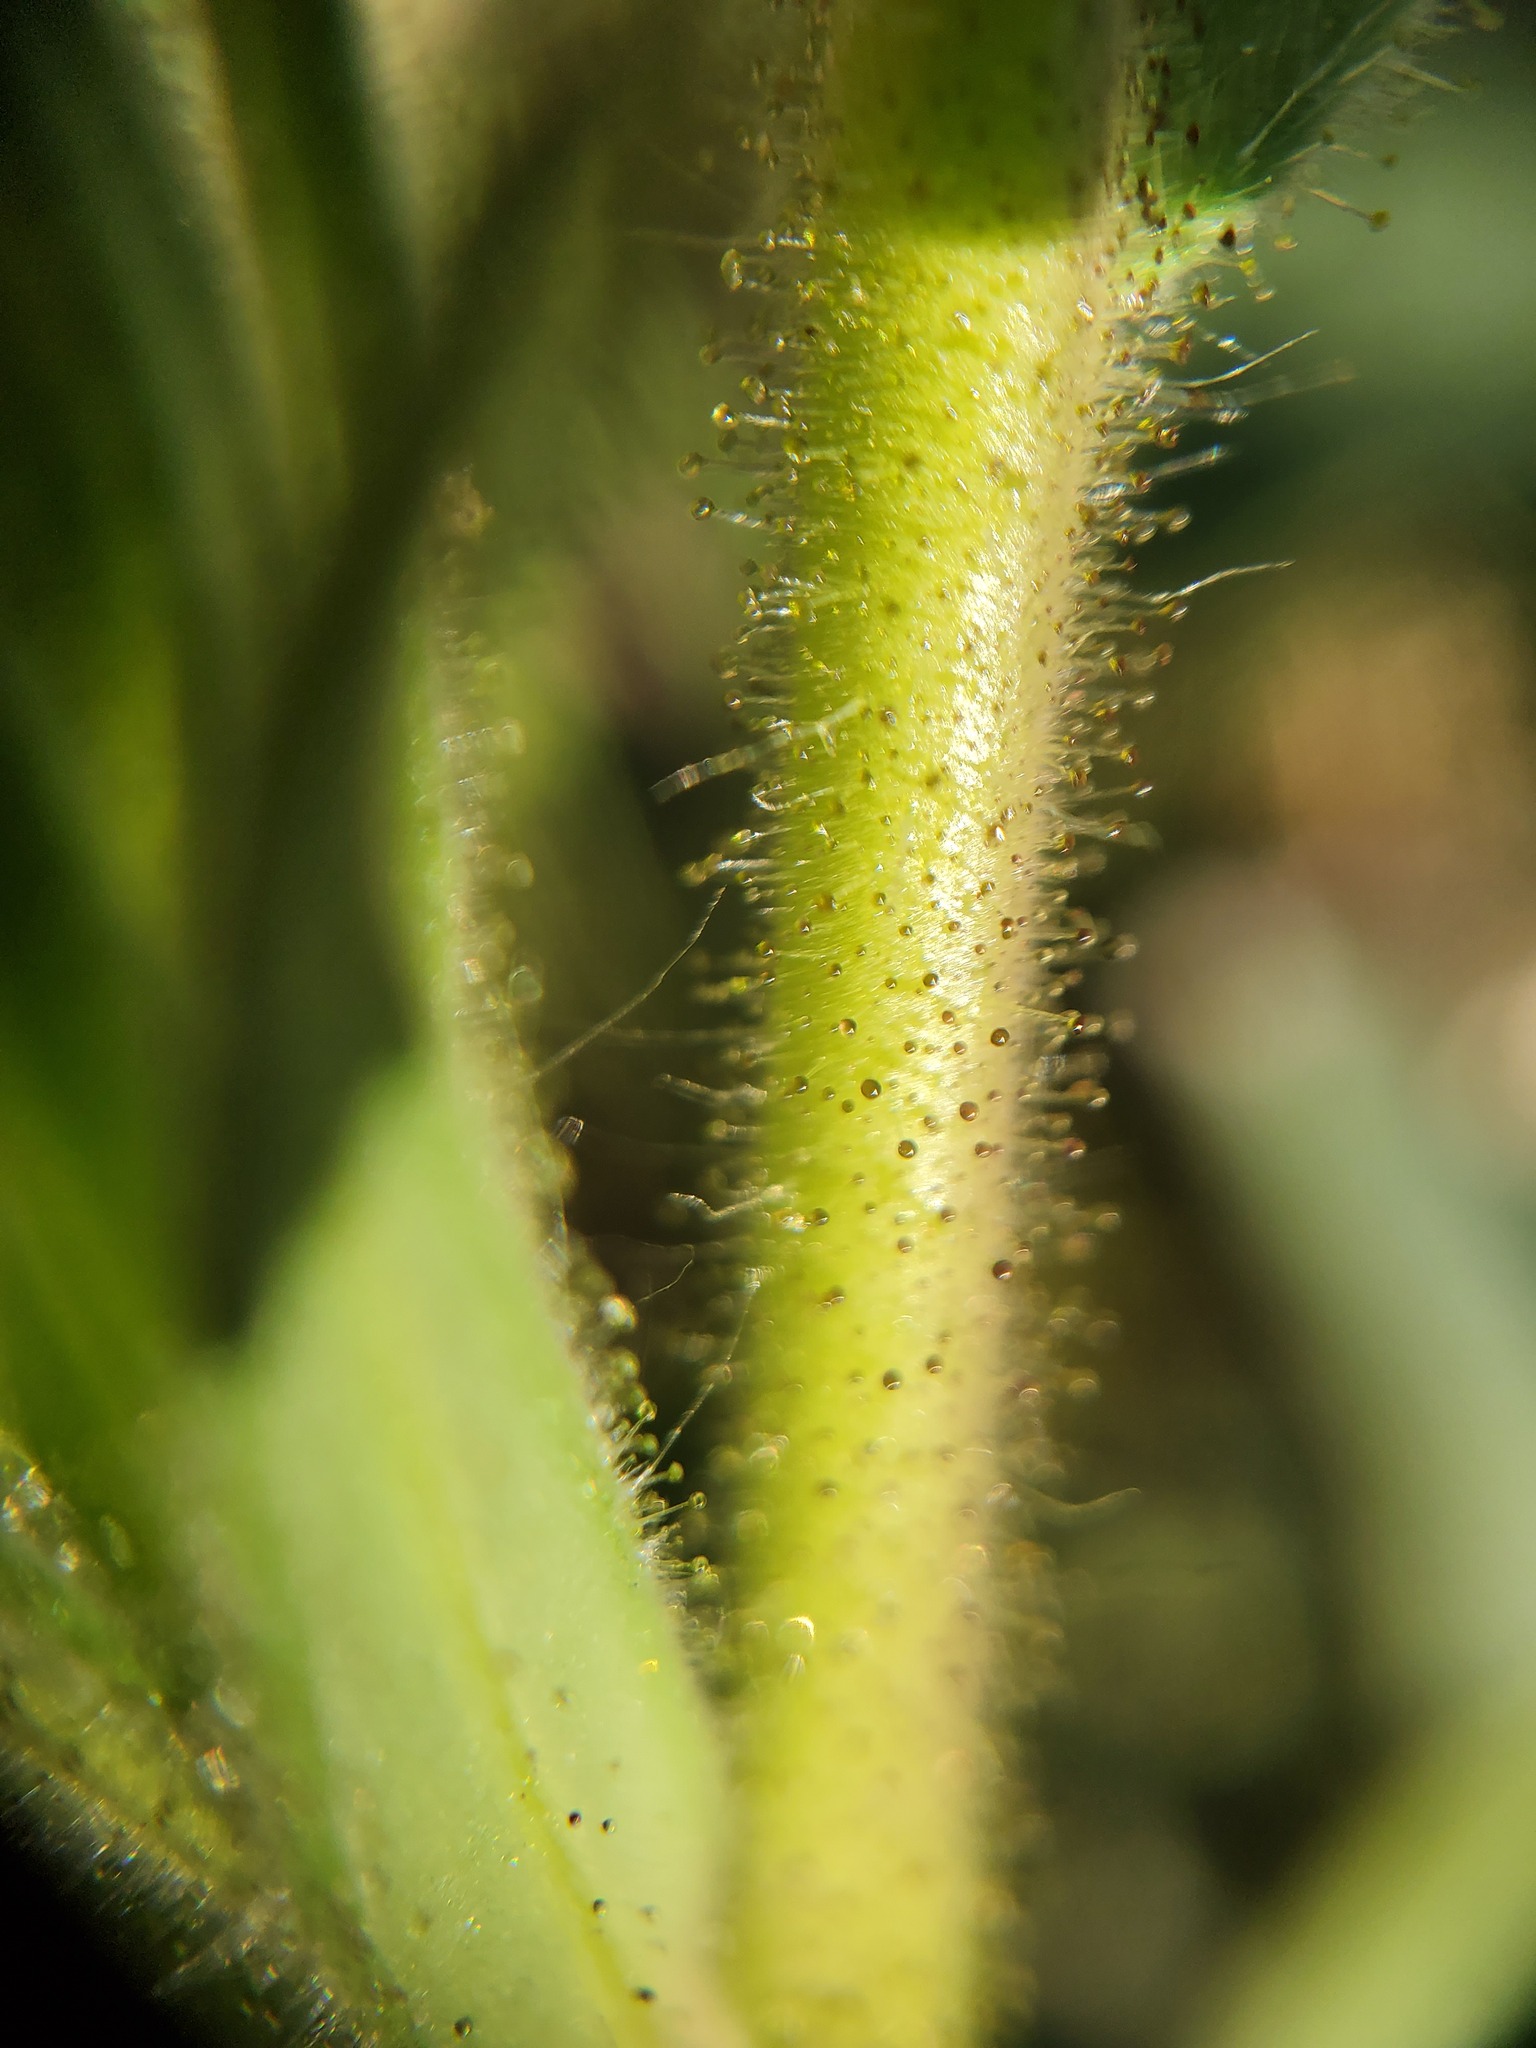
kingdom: Plantae
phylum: Tracheophyta
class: Magnoliopsida
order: Asterales
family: Asteraceae
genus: Madia
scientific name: Madia elegans
